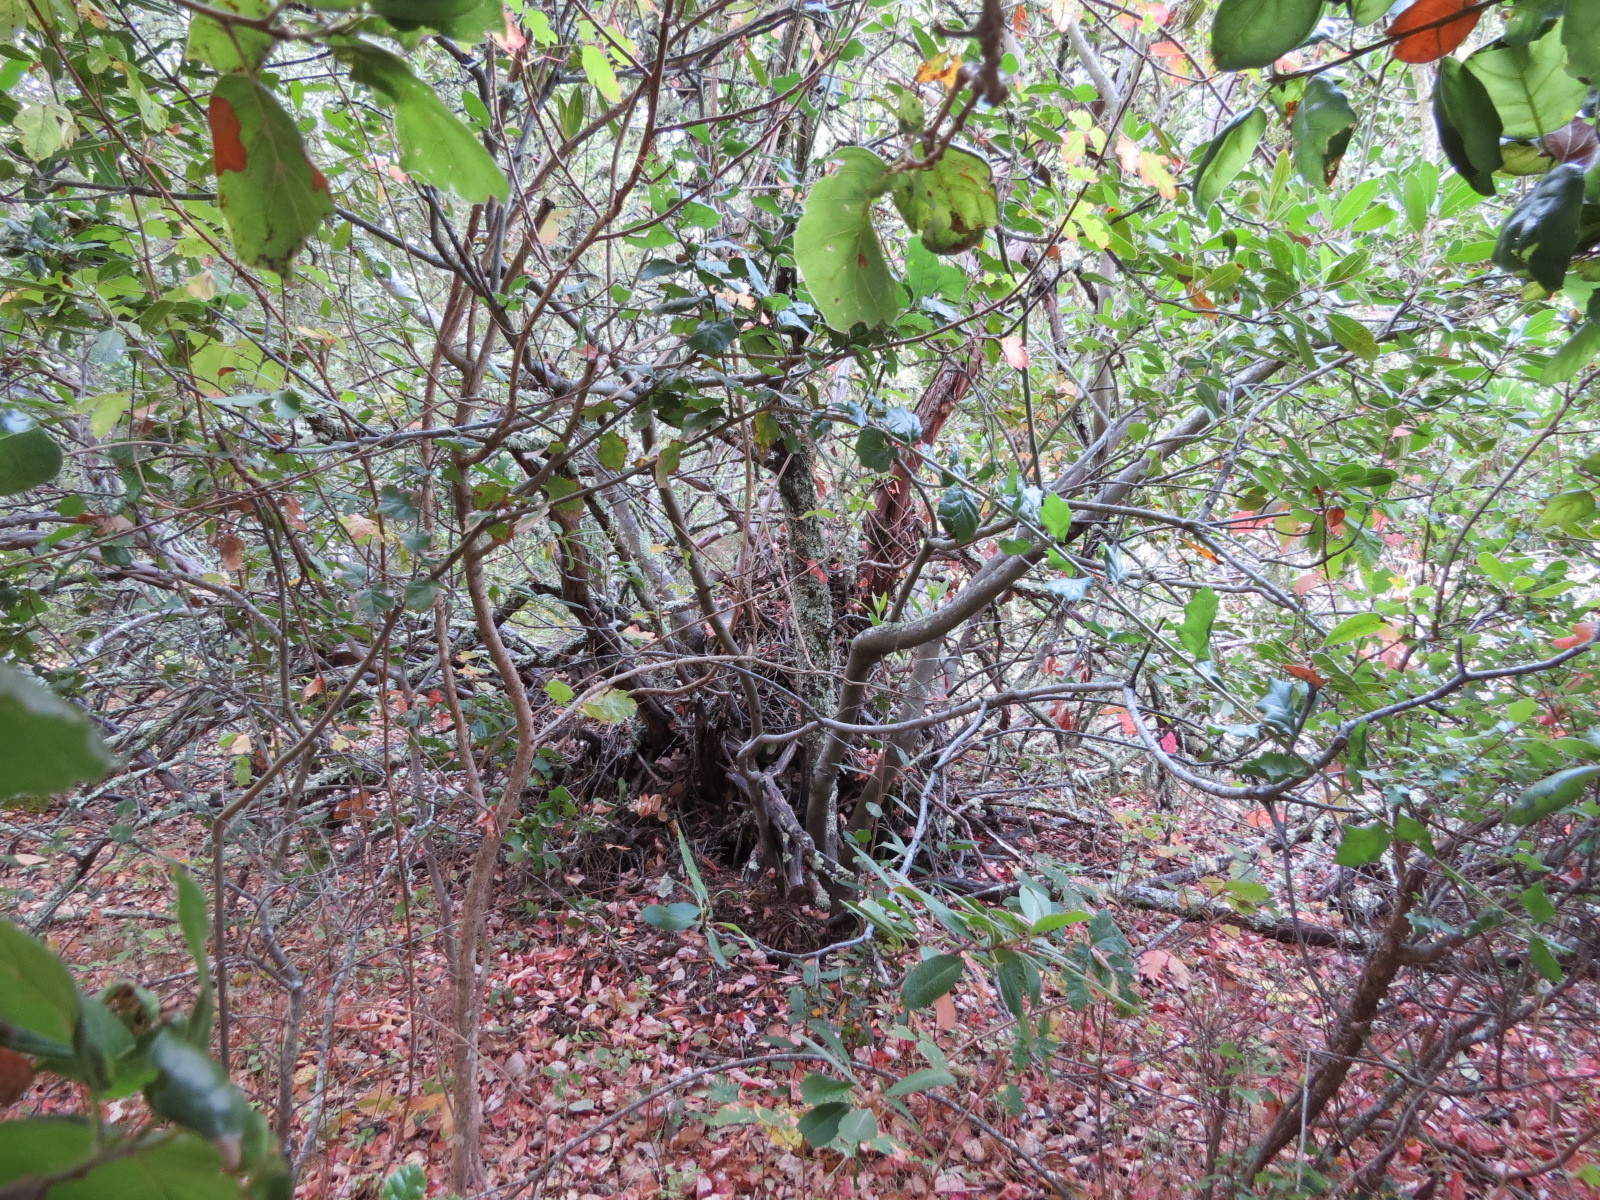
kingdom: Animalia
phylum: Chordata
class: Mammalia
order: Rodentia
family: Cricetidae
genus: Neotoma
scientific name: Neotoma fuscipes
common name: Dusky-footed woodrat
